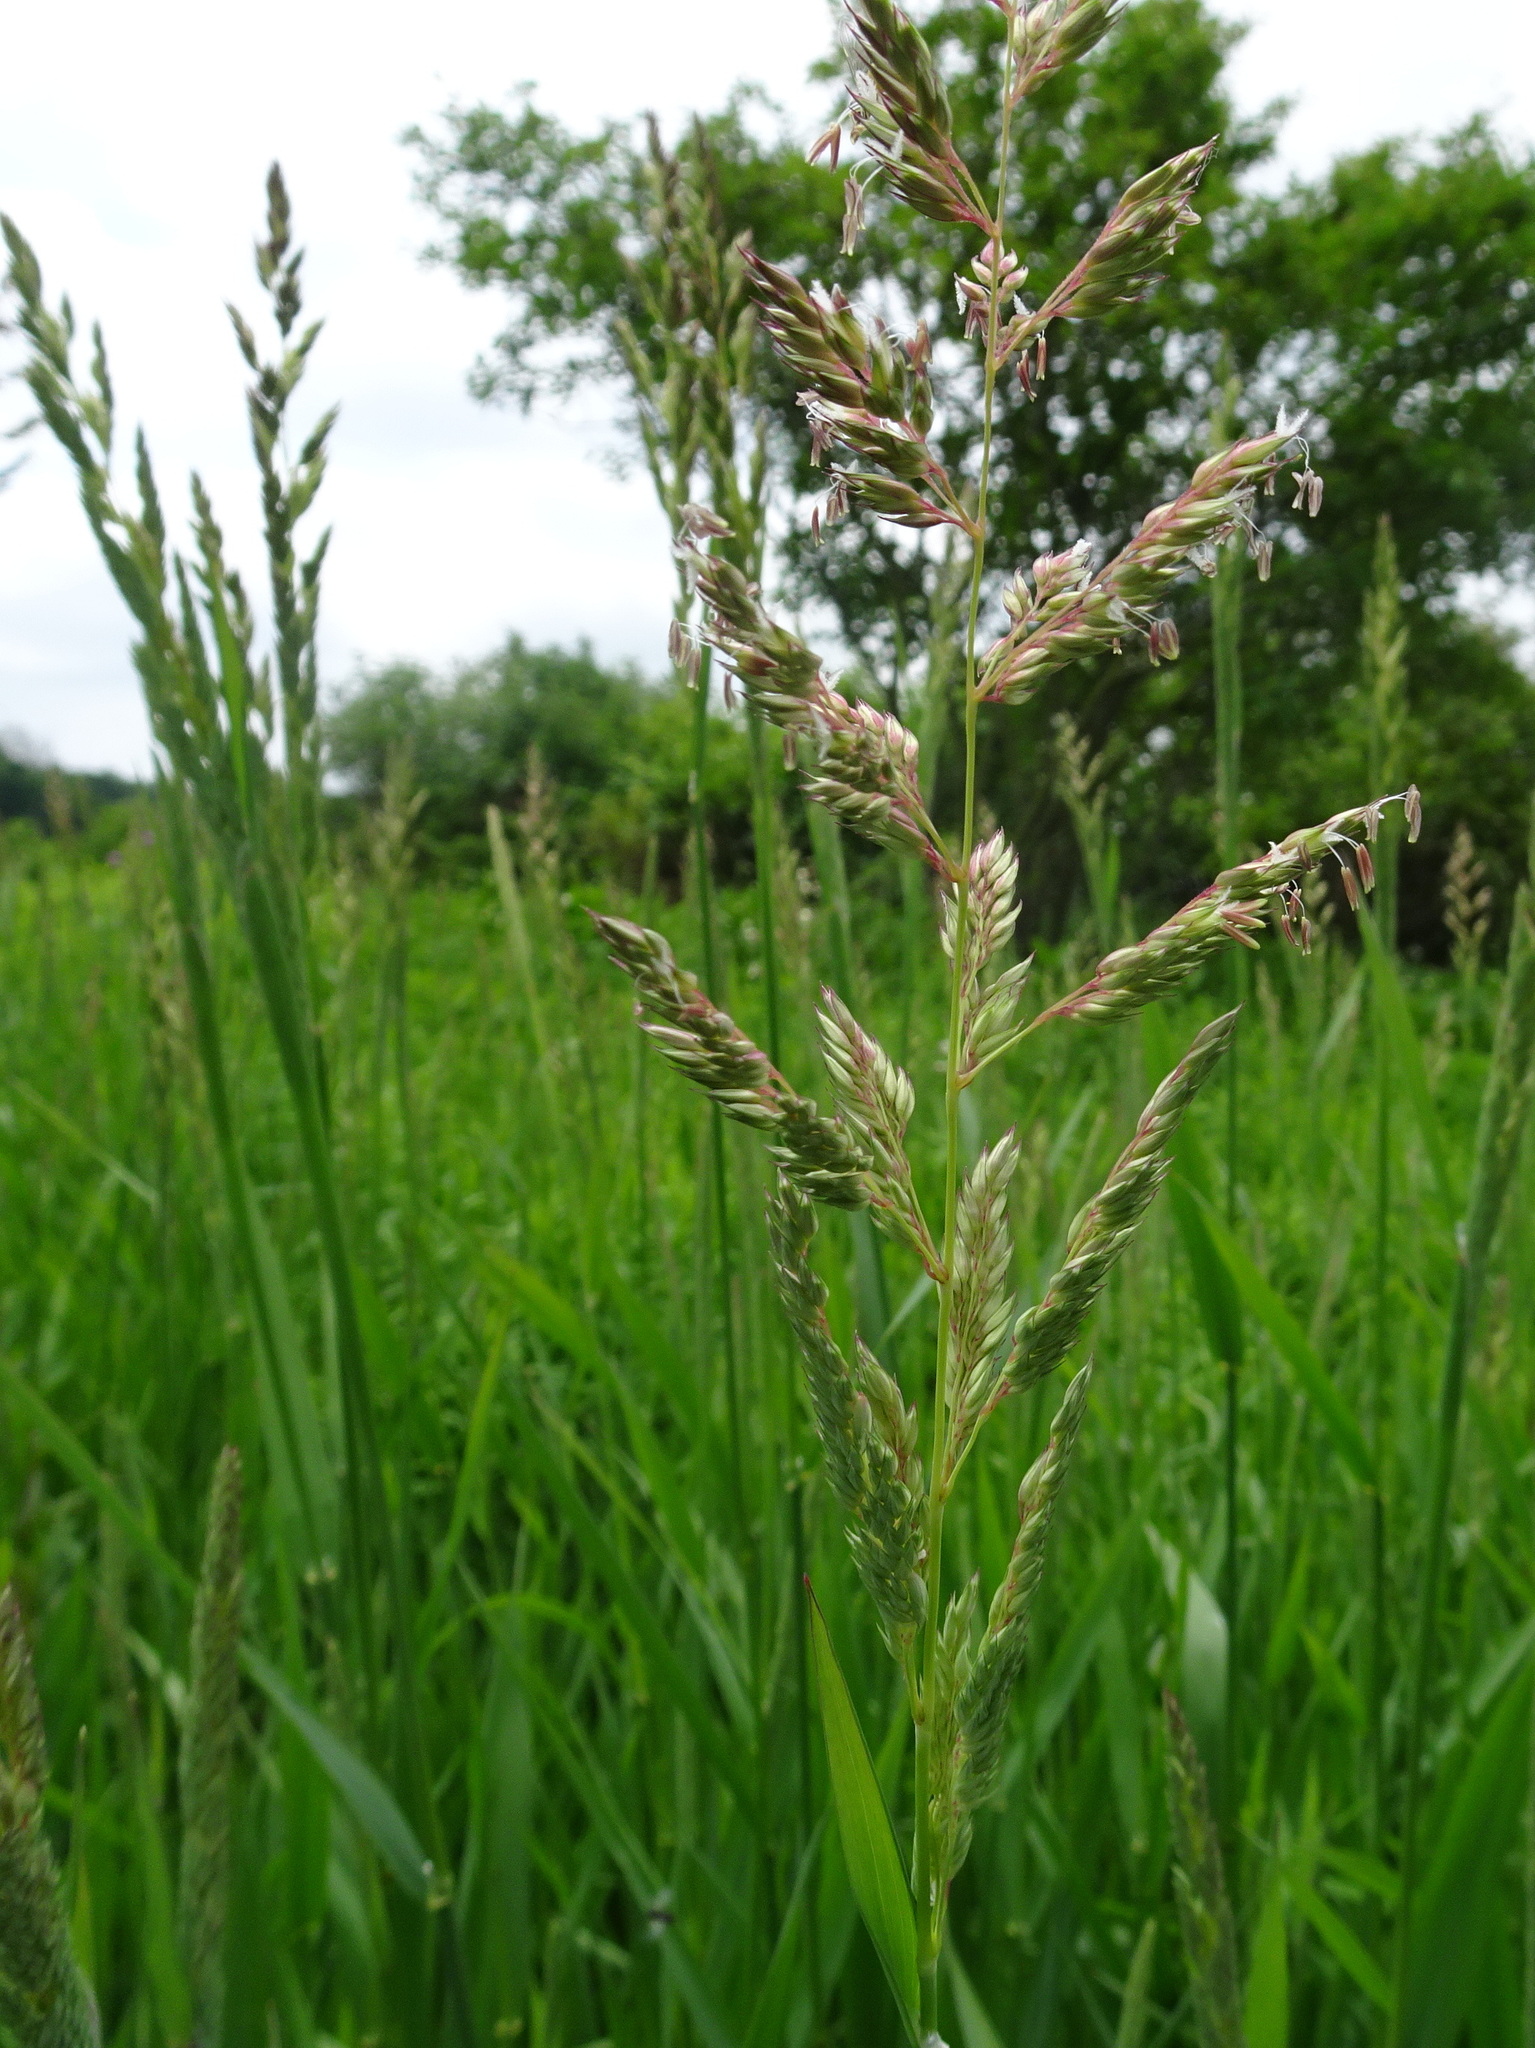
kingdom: Plantae
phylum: Tracheophyta
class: Liliopsida
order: Poales
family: Poaceae
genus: Phalaris
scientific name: Phalaris arundinacea
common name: Reed canary-grass
